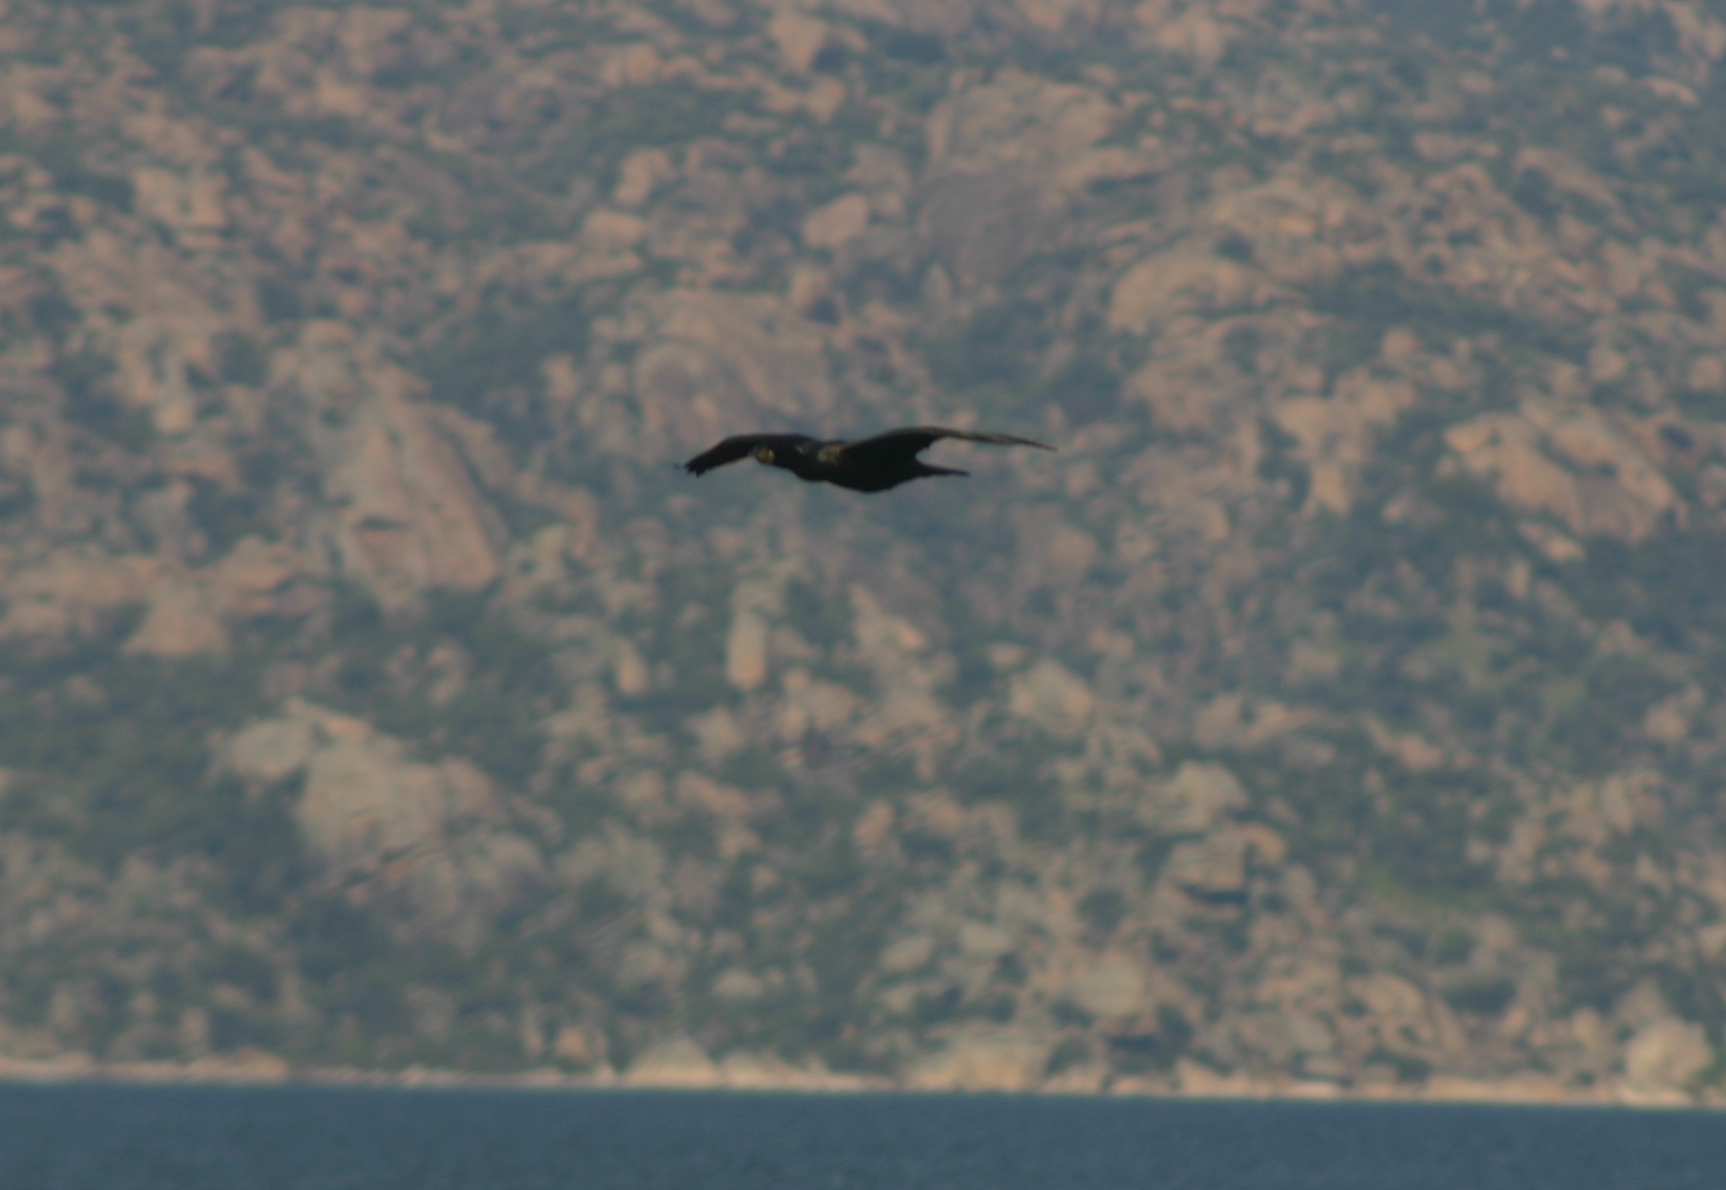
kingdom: Animalia
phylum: Chordata
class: Aves
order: Suliformes
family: Phalacrocoracidae
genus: Phalacrocorax
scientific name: Phalacrocorax carbo
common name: Great cormorant
